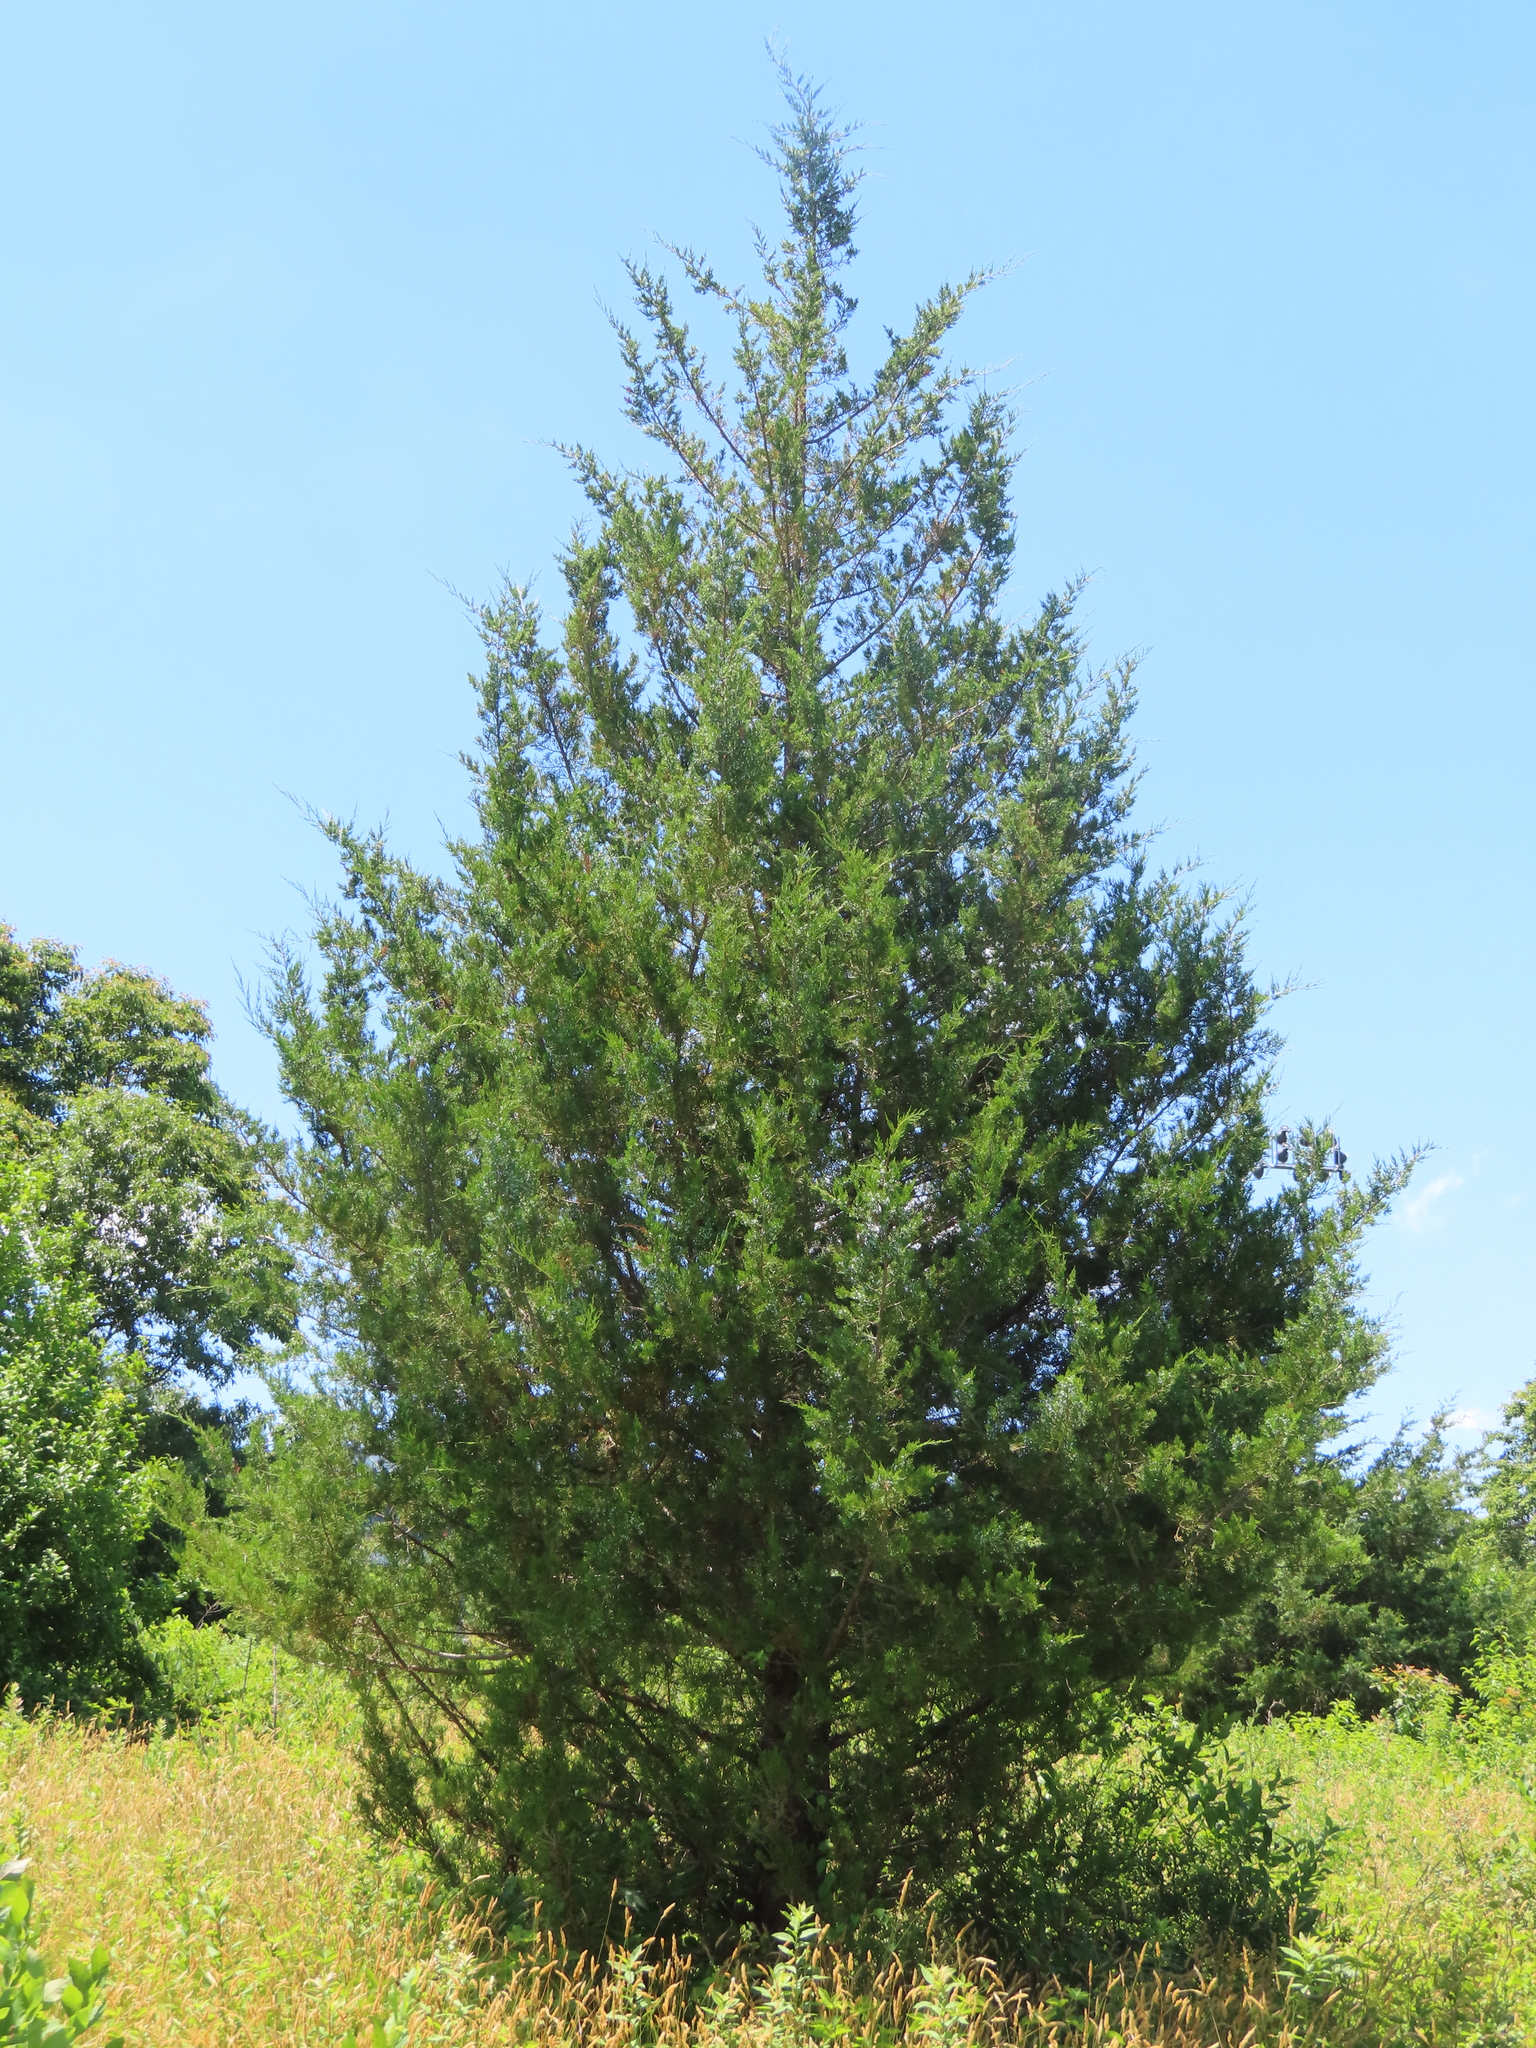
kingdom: Plantae
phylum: Tracheophyta
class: Pinopsida
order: Pinales
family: Cupressaceae
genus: Juniperus
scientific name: Juniperus virginiana
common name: Red juniper
